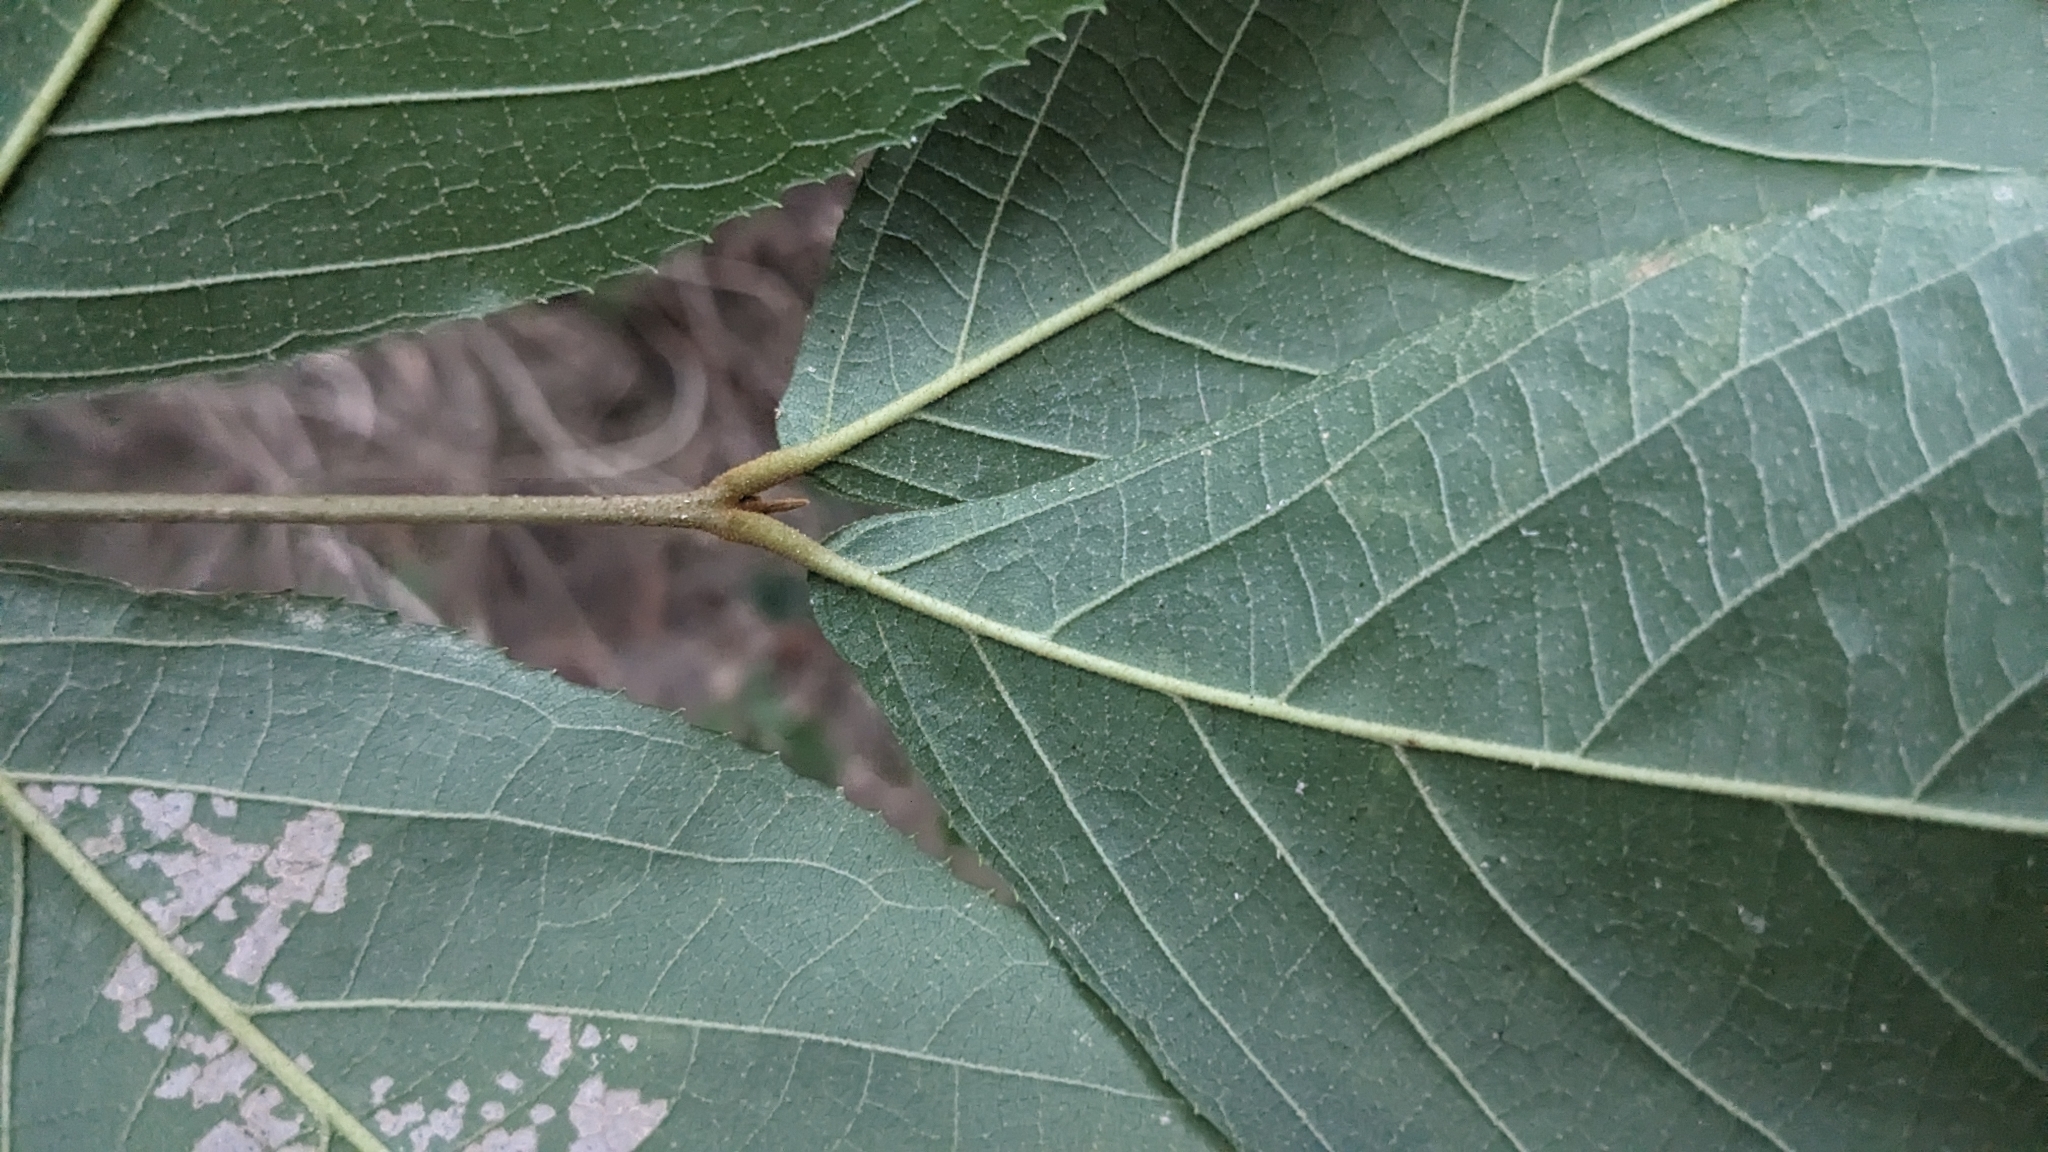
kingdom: Plantae
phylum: Tracheophyta
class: Magnoliopsida
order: Lamiales
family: Lamiaceae
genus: Callicarpa
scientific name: Callicarpa pedunculata
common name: Velvetleaf
